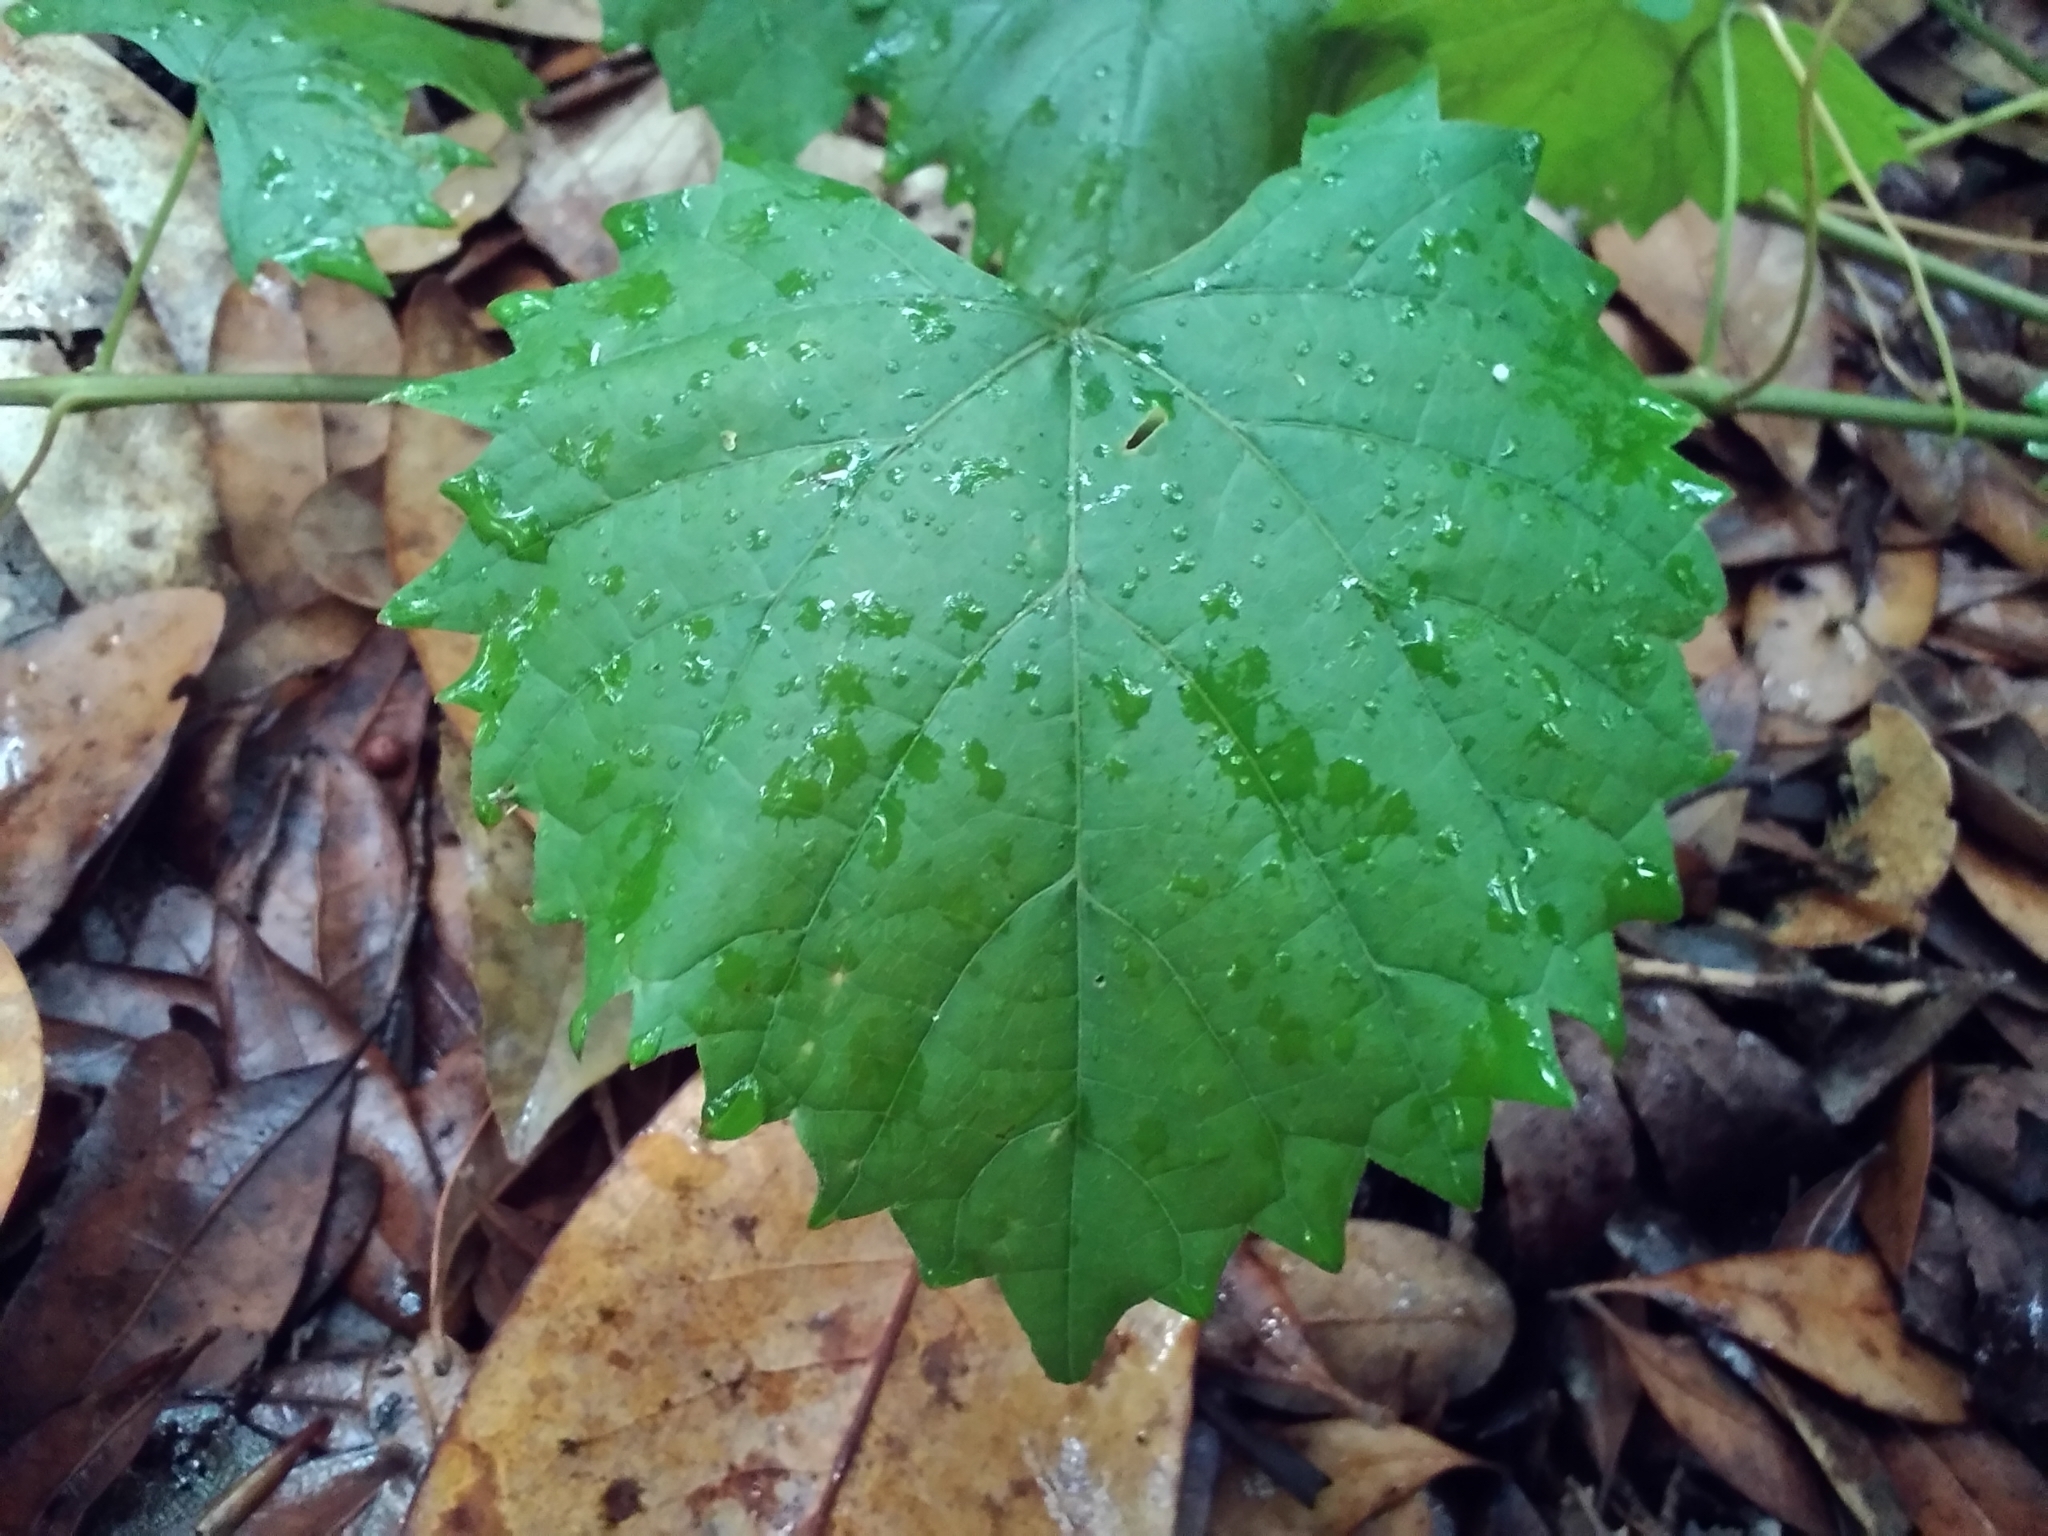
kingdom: Plantae
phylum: Tracheophyta
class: Magnoliopsida
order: Vitales
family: Vitaceae
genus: Vitis
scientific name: Vitis rotundifolia
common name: Muscadine grape
